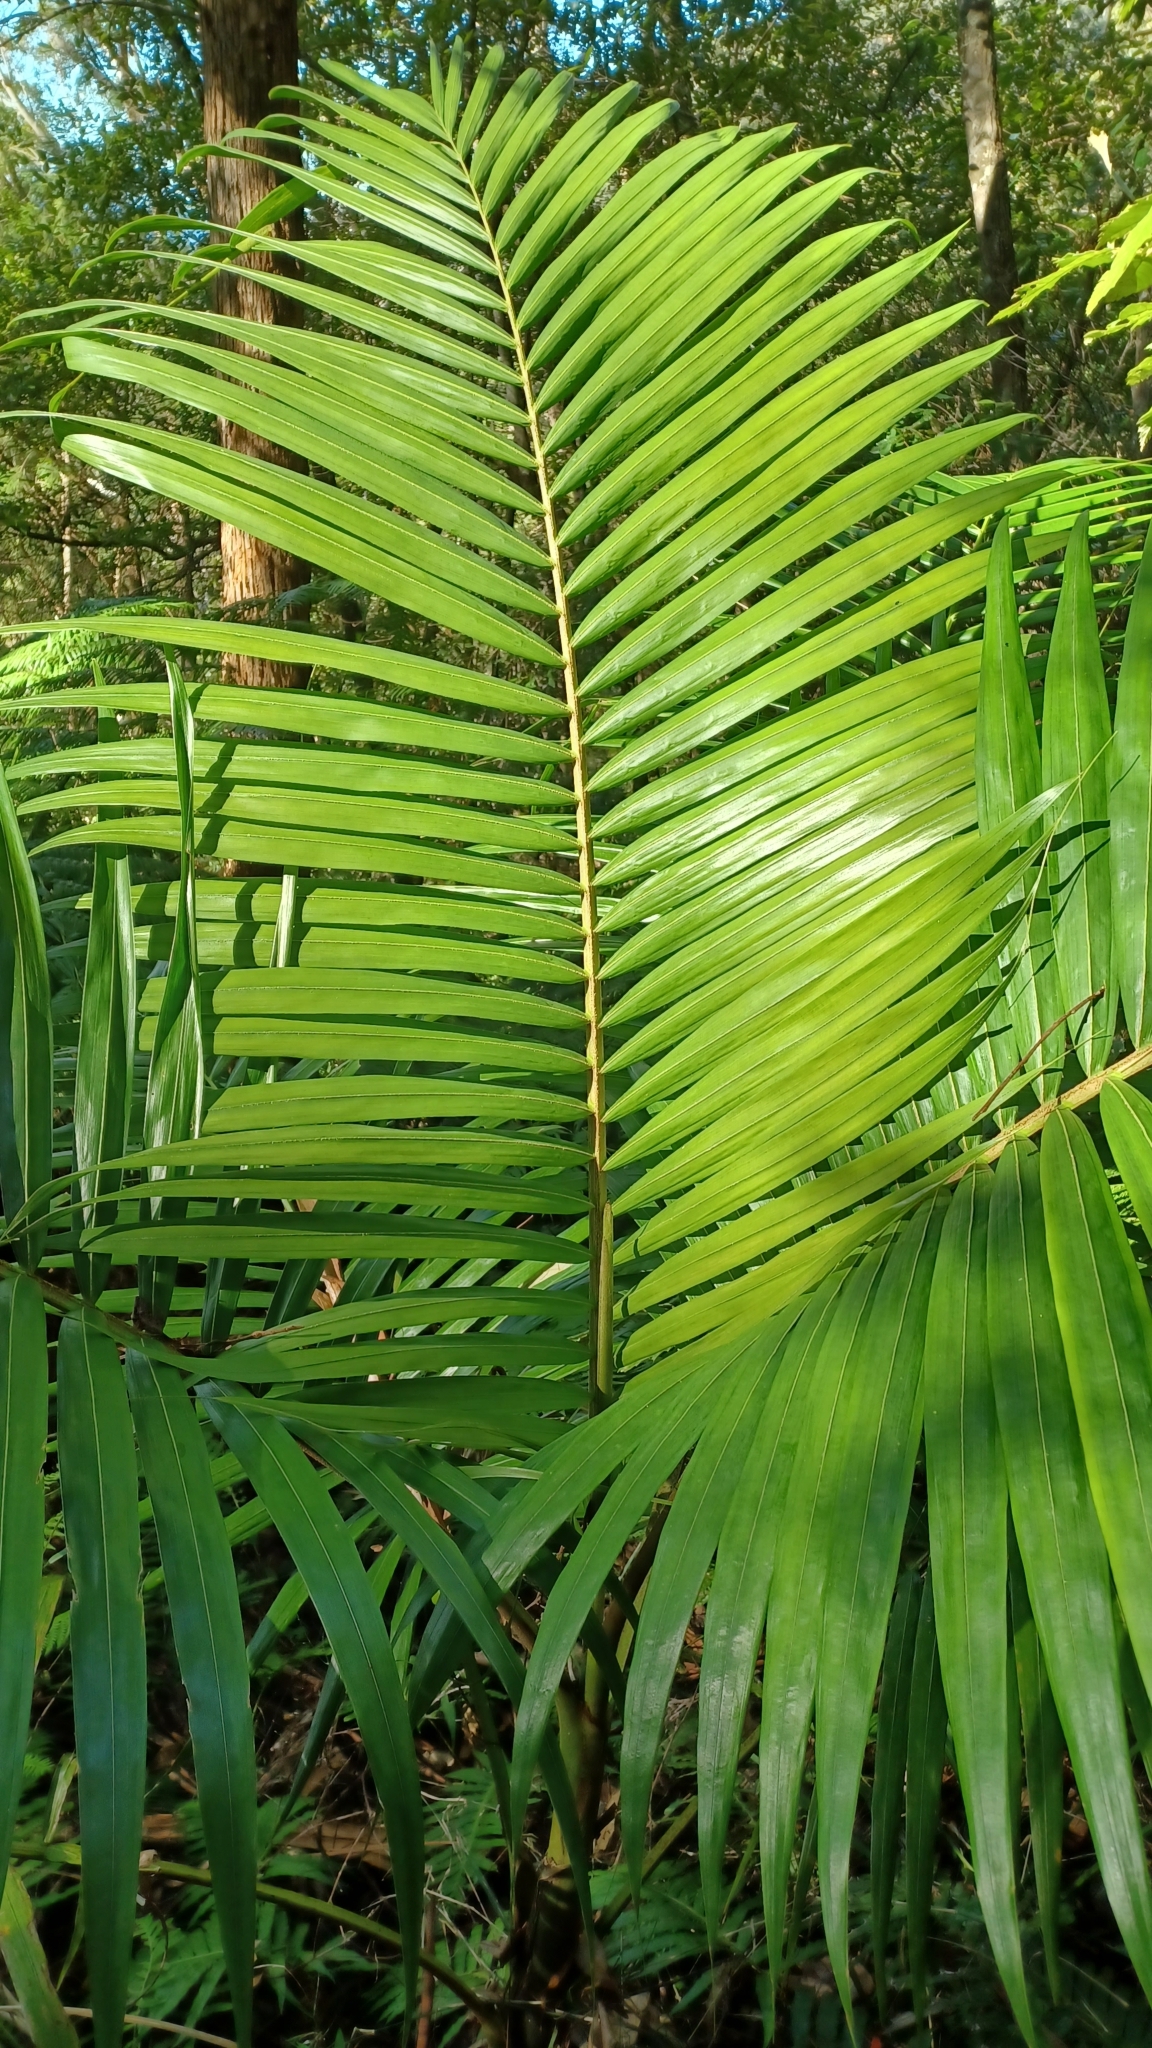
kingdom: Plantae
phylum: Tracheophyta
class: Liliopsida
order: Arecales
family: Arecaceae
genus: Archontophoenix
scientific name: Archontophoenix cunninghamiana
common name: Piccabeen bangalow palm
